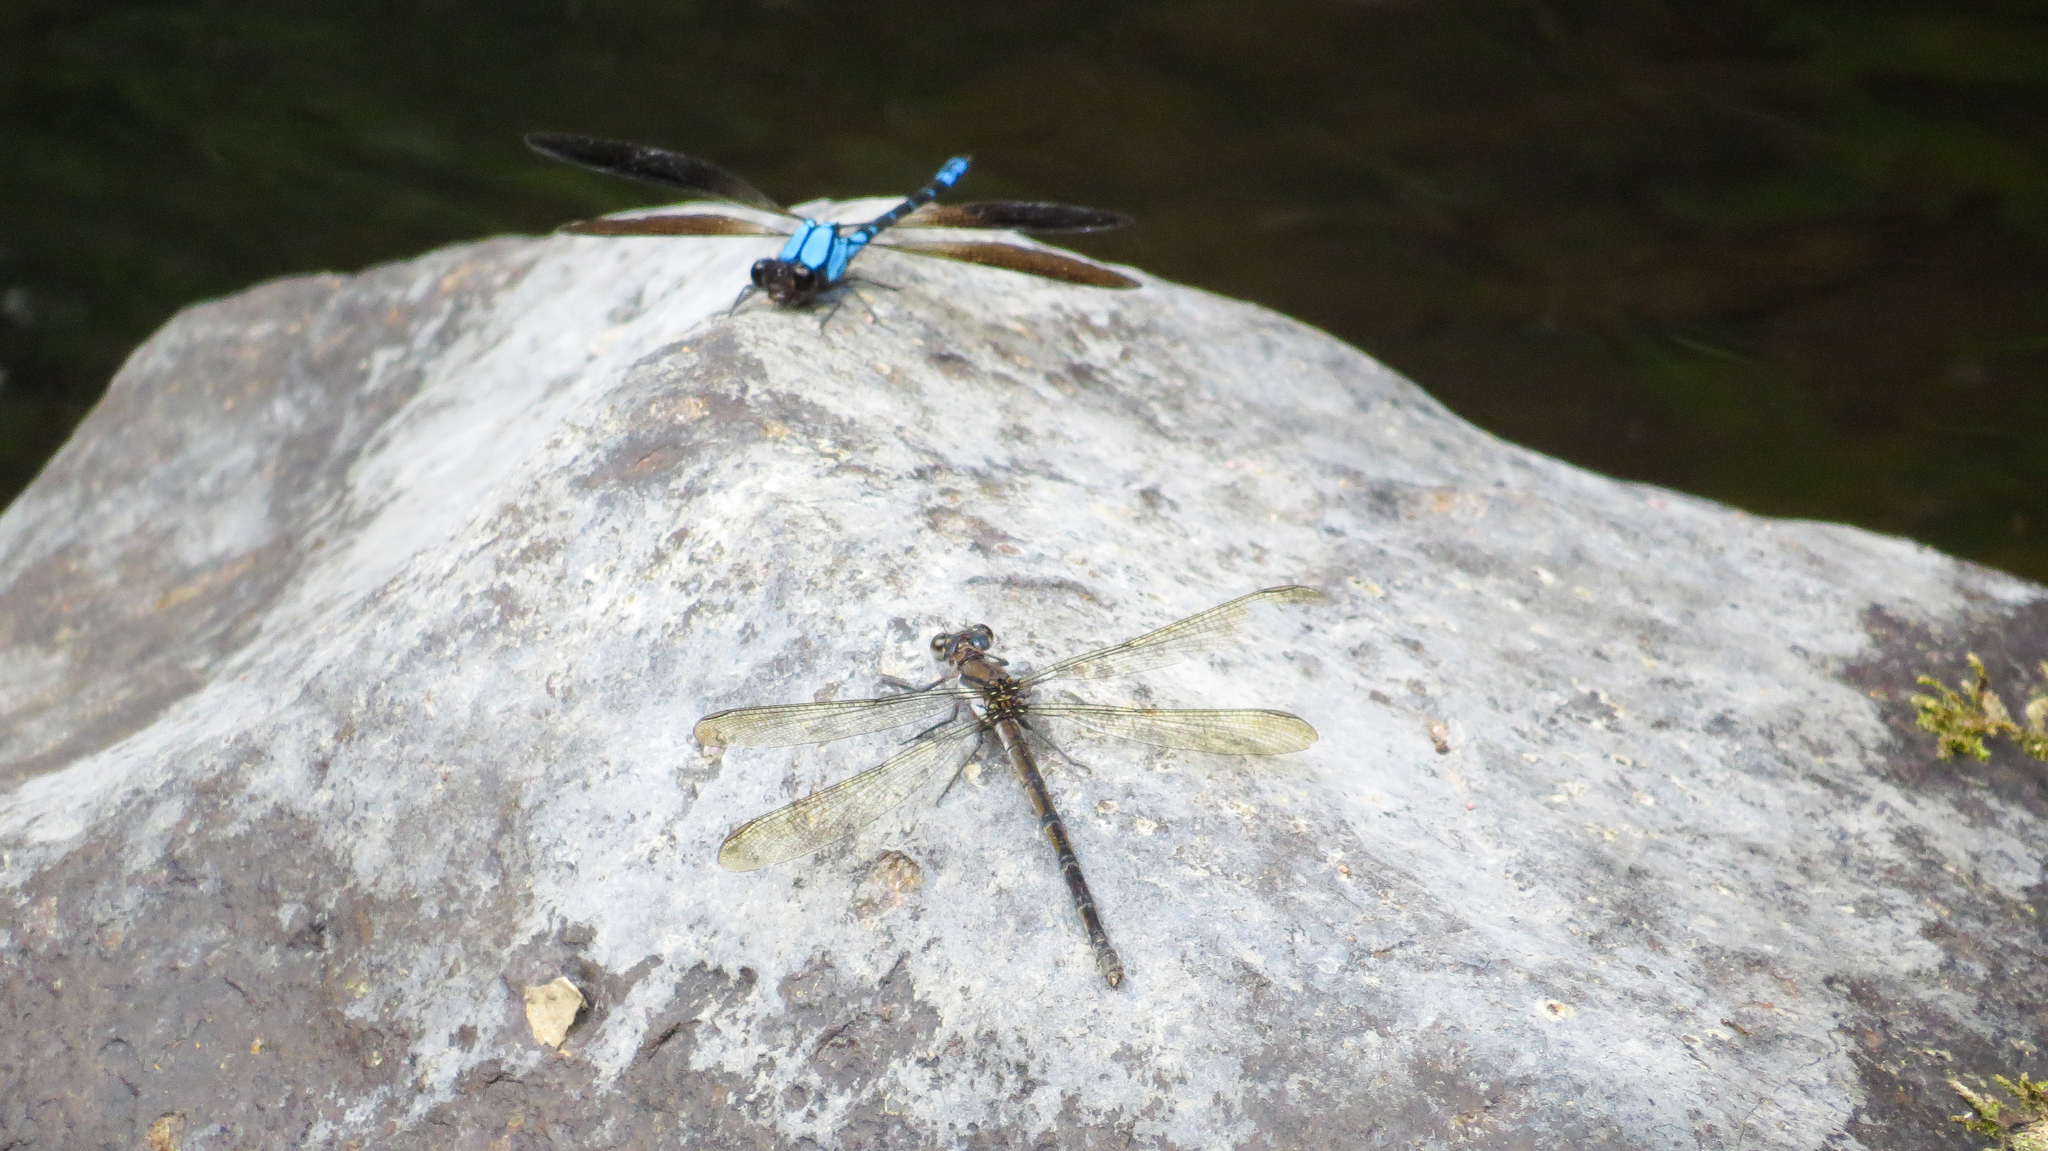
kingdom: Animalia
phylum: Arthropoda
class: Insecta
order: Odonata
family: Lestoideidae
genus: Diphlebia
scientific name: Diphlebia coerulescens
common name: Sapphire rockmaster
